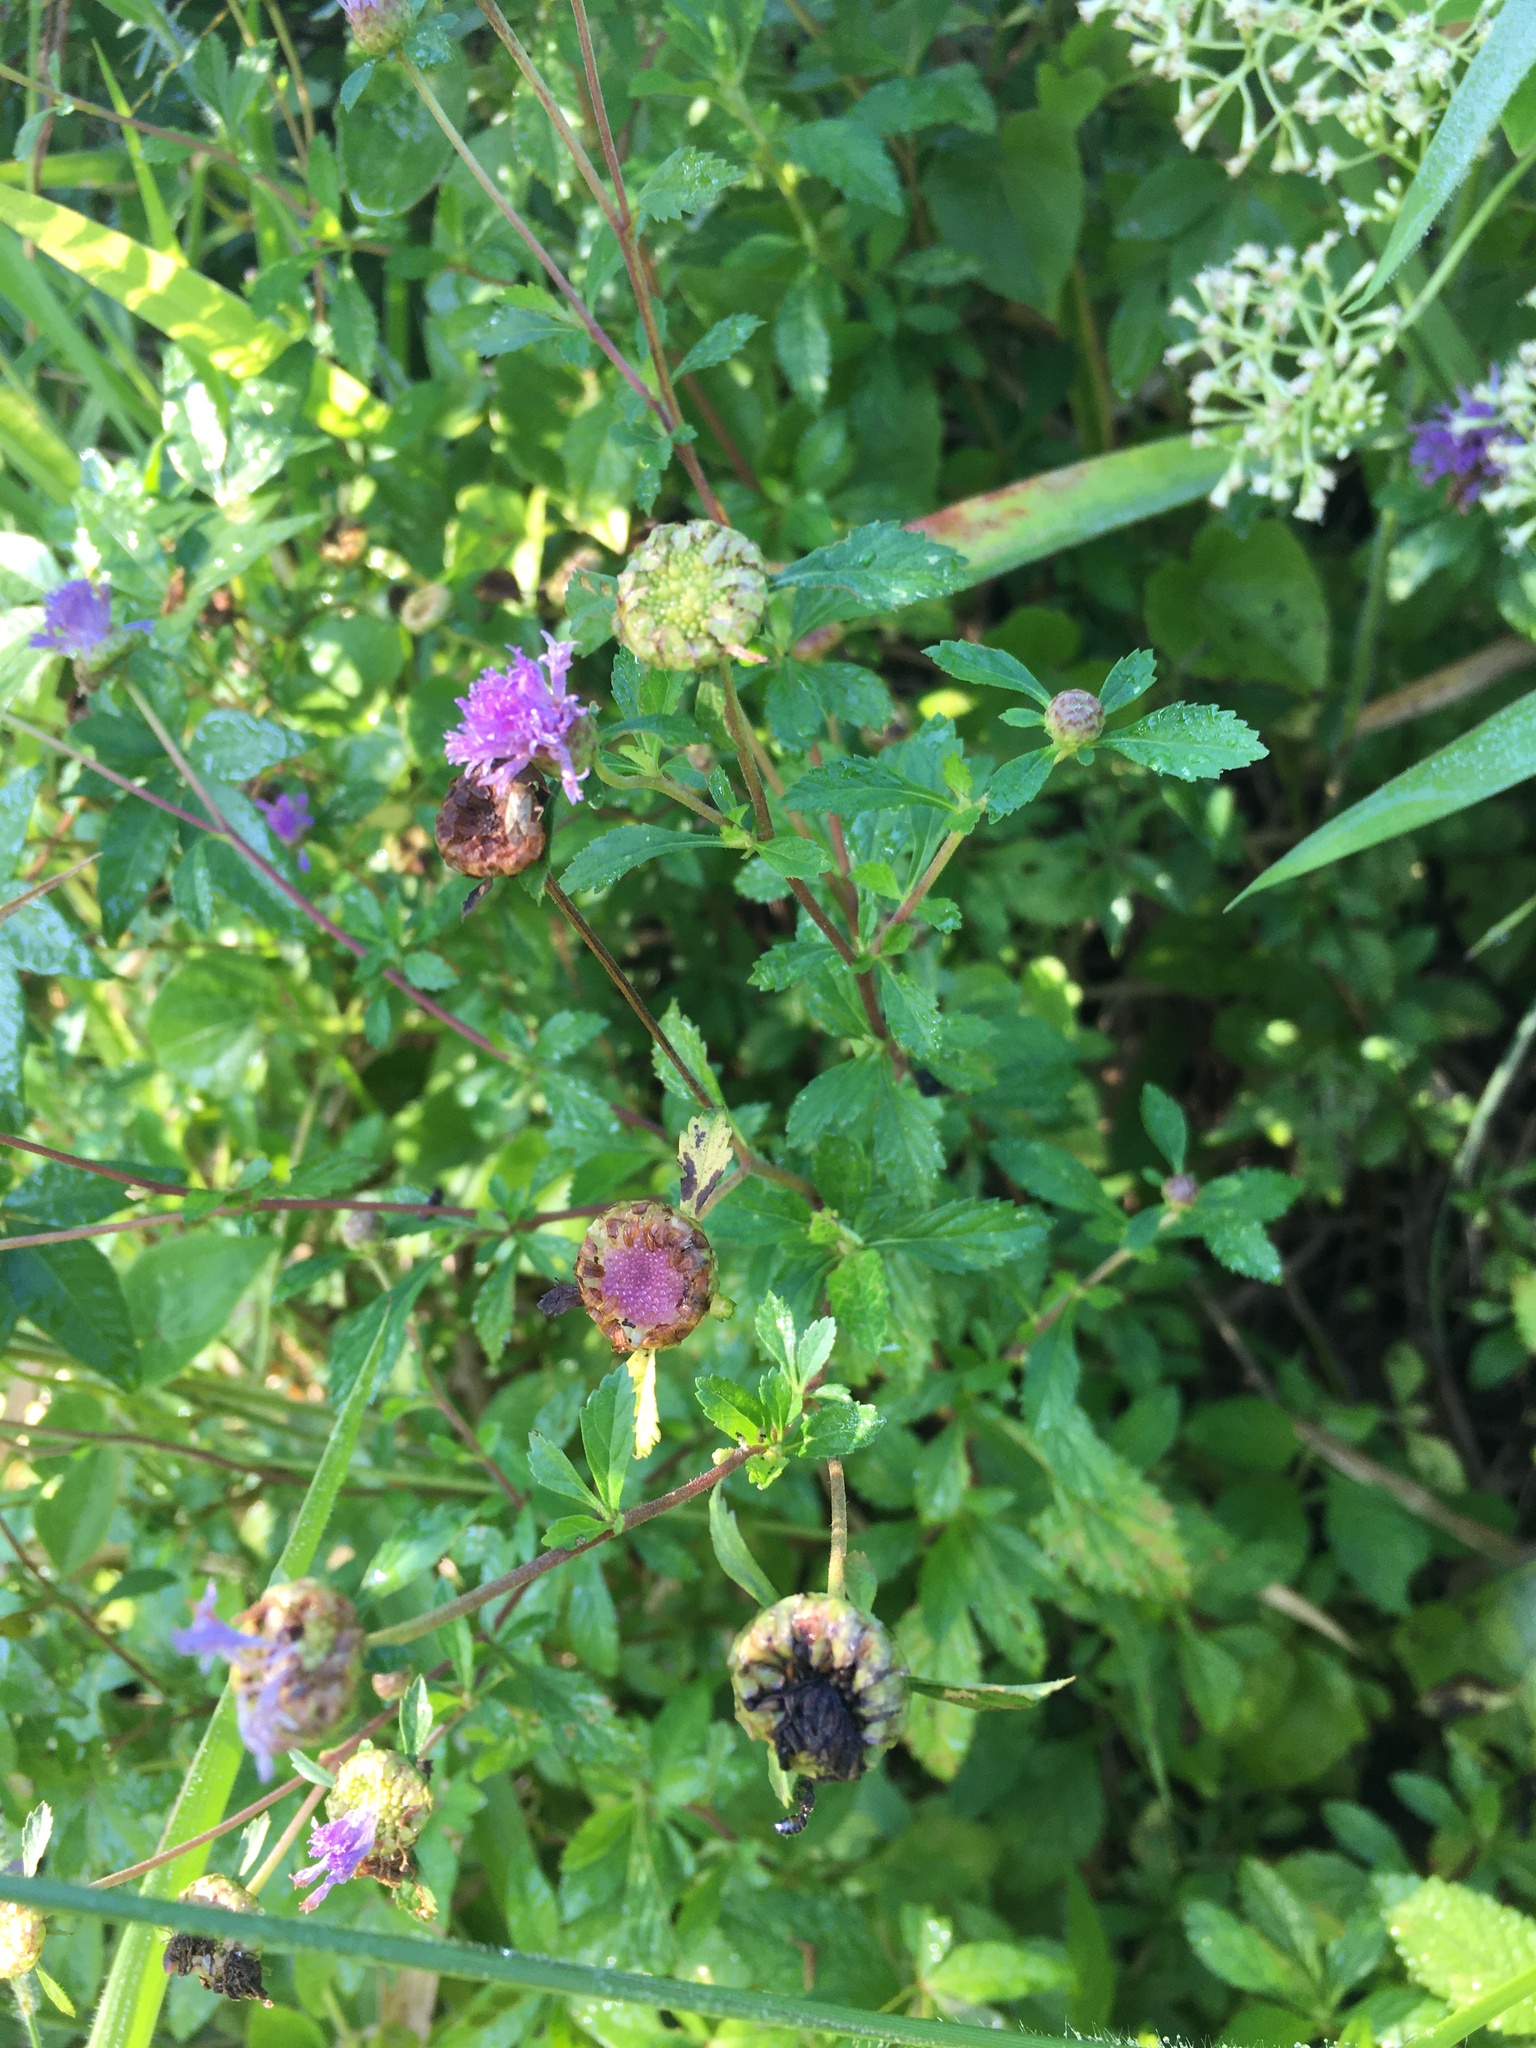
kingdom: Plantae
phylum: Tracheophyta
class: Magnoliopsida
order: Asterales
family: Asteraceae
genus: Centratherum
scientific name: Centratherum punctatum
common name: Larkdaisy
